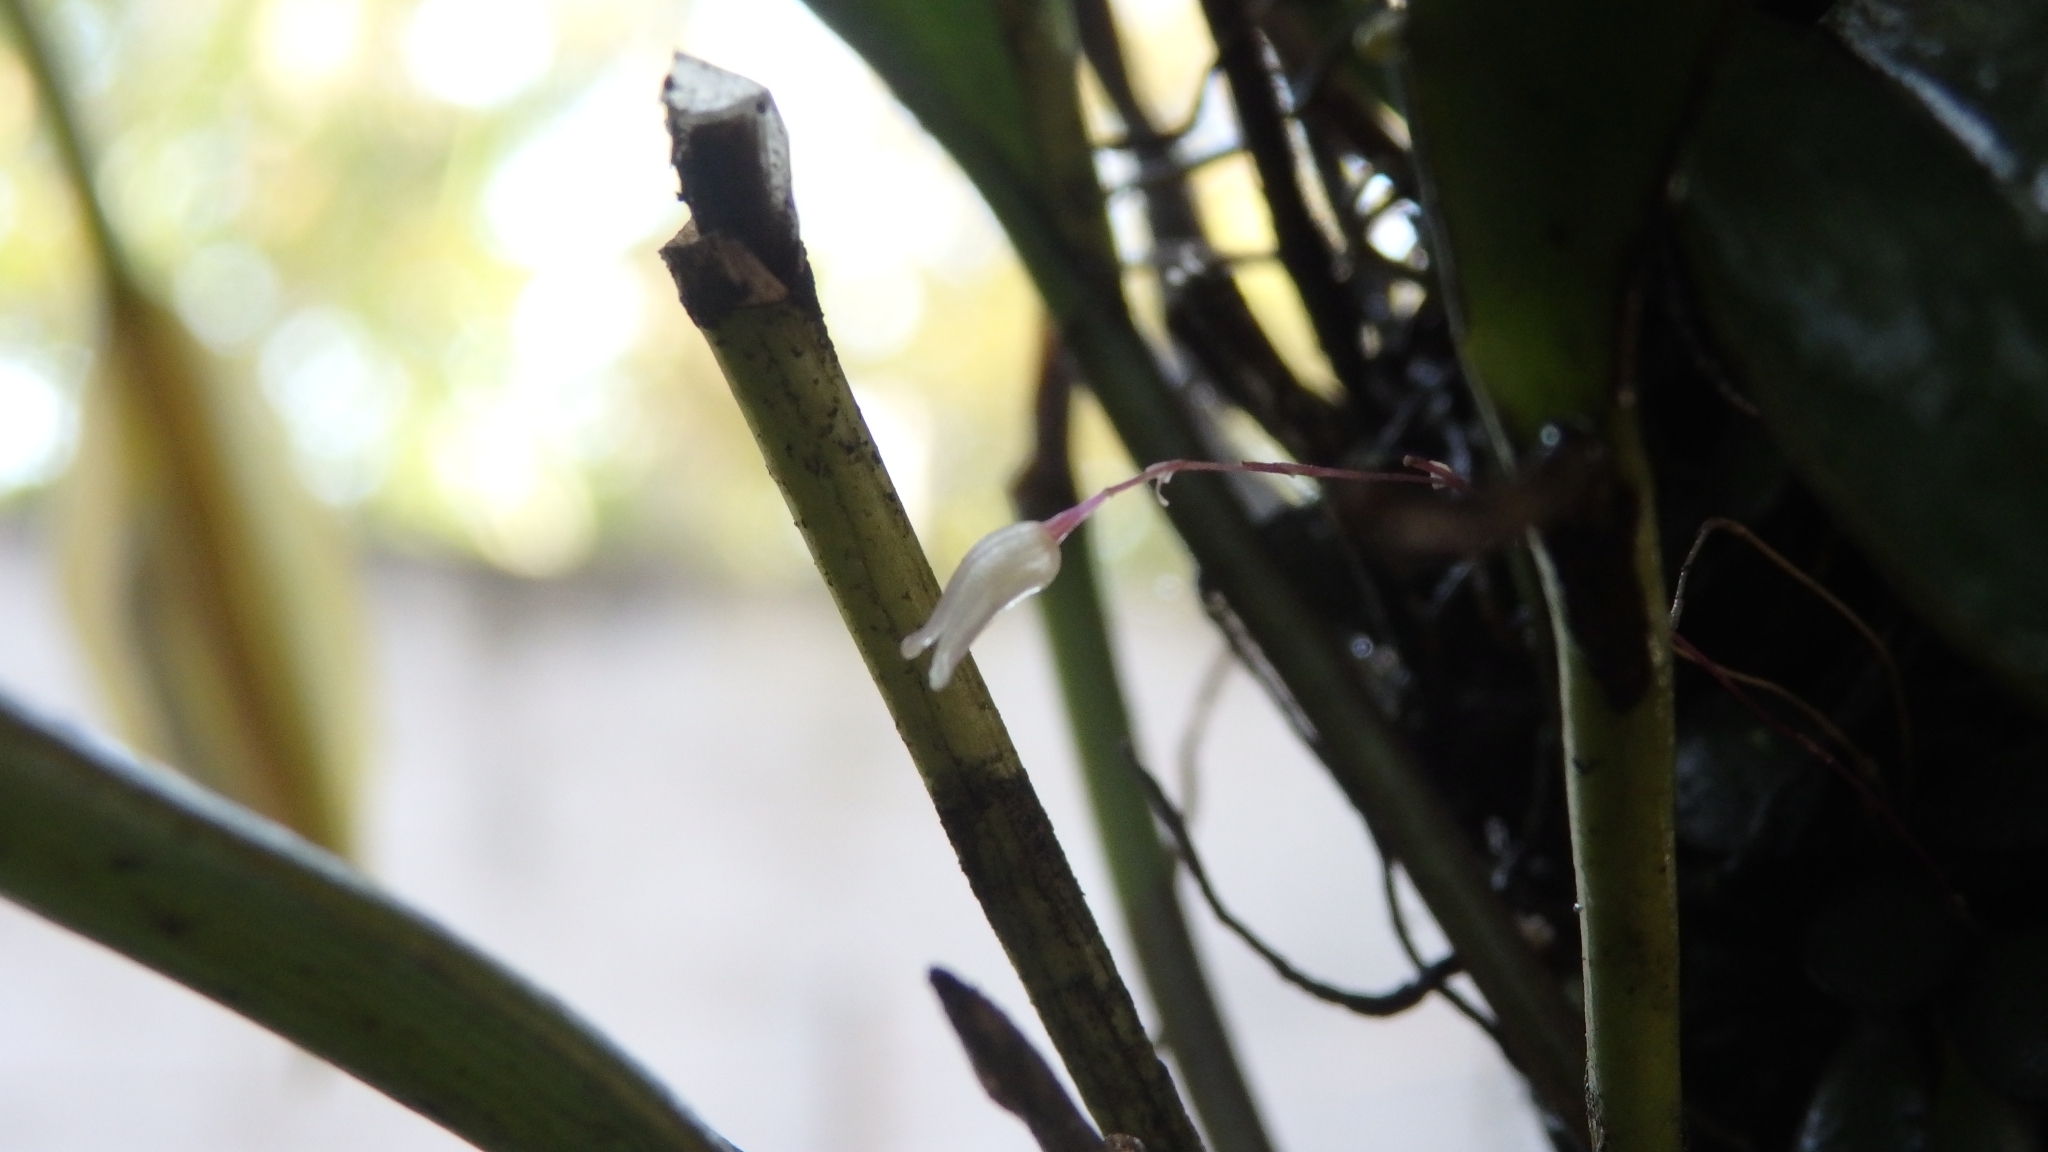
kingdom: Plantae
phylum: Tracheophyta
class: Liliopsida
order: Asparagales
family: Orchidaceae
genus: Specklinia
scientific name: Specklinia digitale
